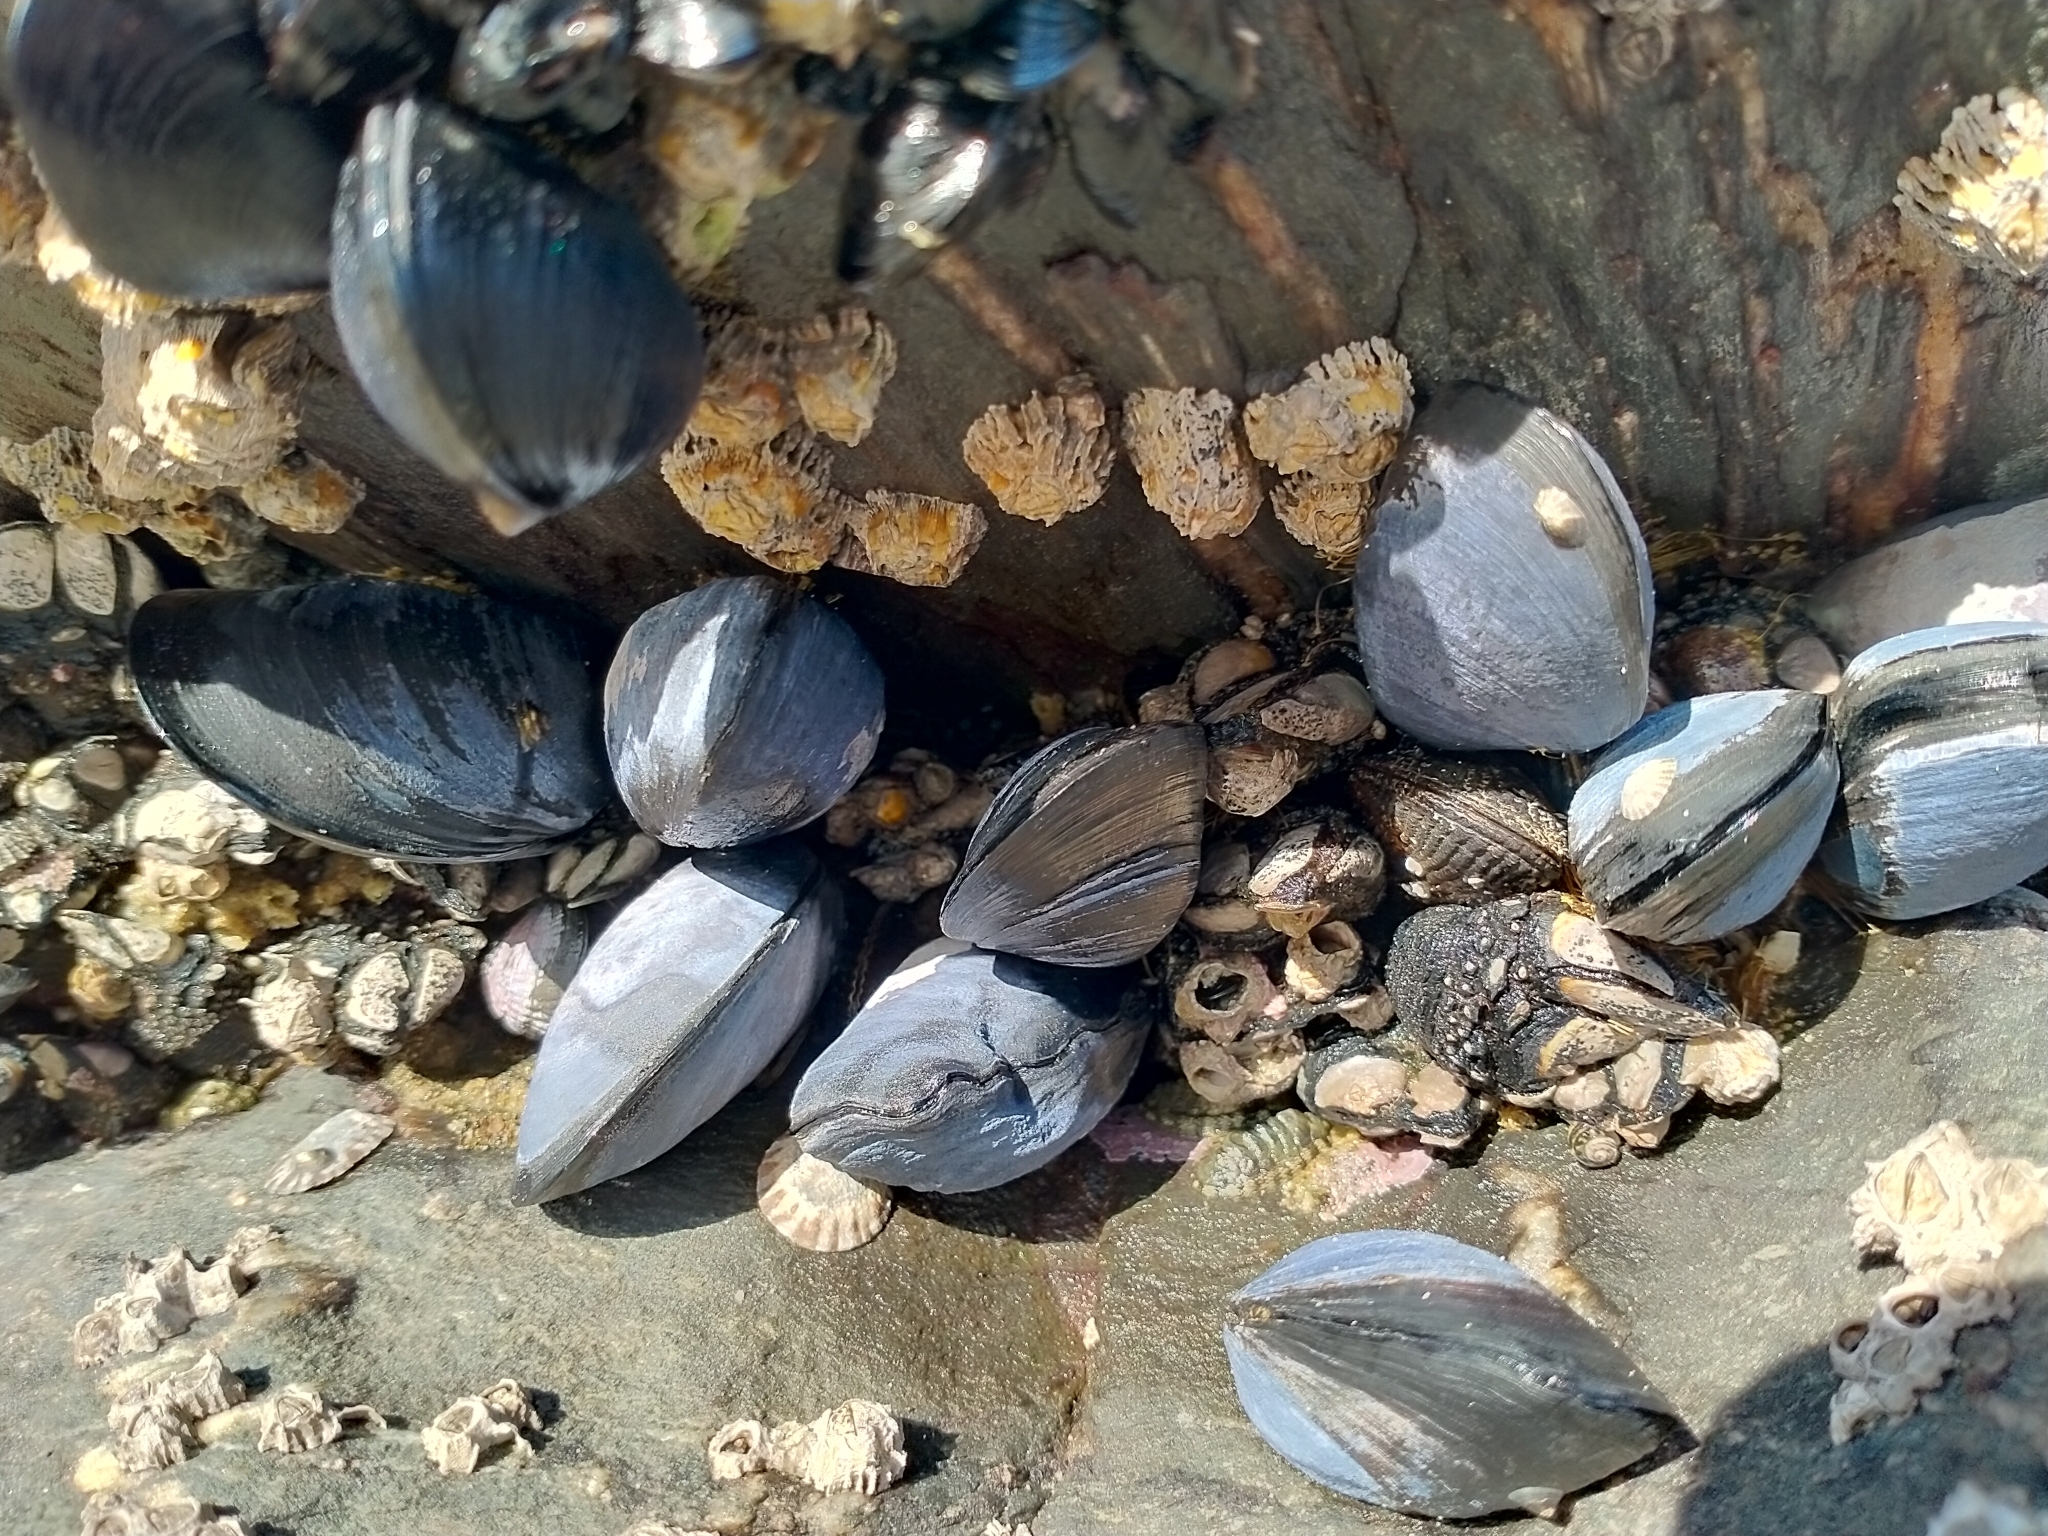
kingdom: Animalia
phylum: Mollusca
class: Bivalvia
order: Mytilida
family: Mytilidae
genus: Mytilus
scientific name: Mytilus planulatus
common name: Australian mussel
